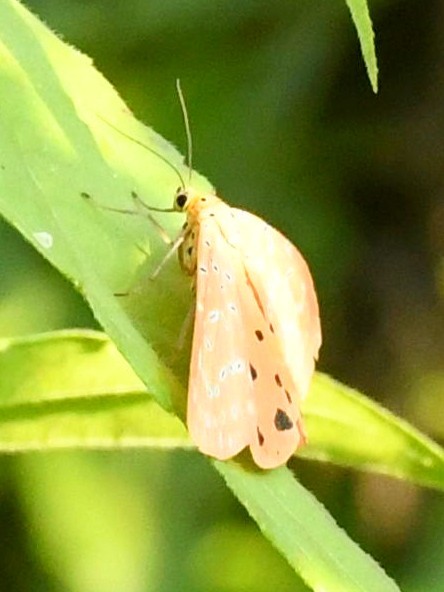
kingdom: Animalia
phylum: Arthropoda
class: Insecta
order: Lepidoptera
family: Erebidae
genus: Mangina
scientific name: Mangina argus
